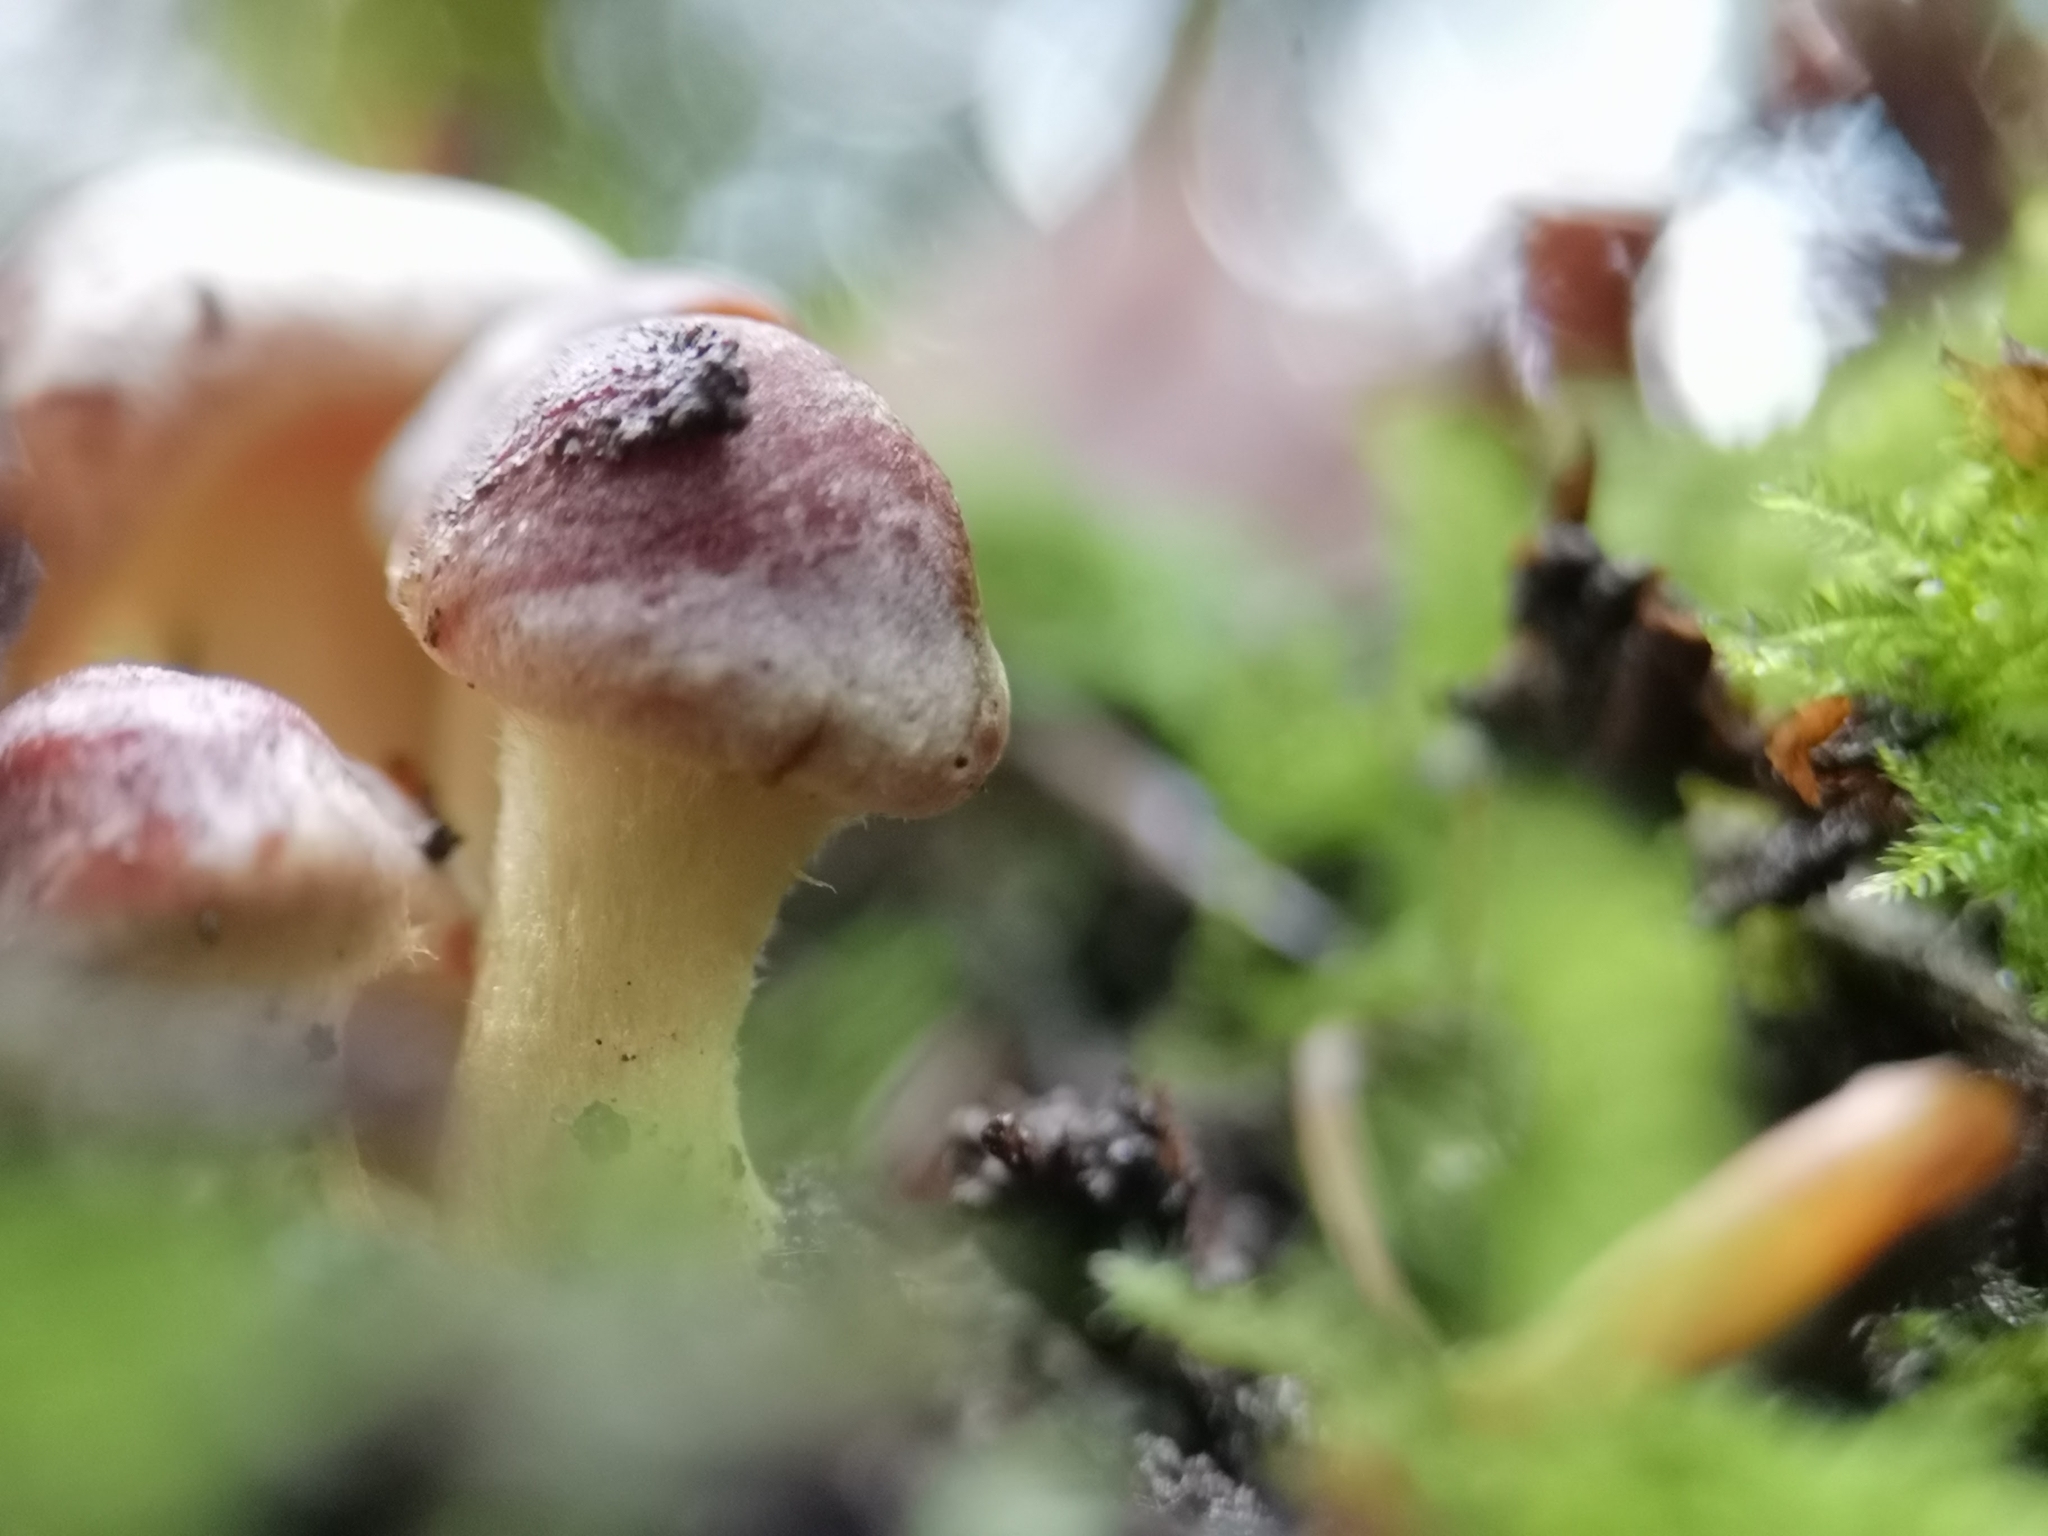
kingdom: Fungi
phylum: Basidiomycota
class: Agaricomycetes
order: Agaricales
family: Strophariaceae
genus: Hypholoma
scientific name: Hypholoma lateritium
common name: Brick caps
